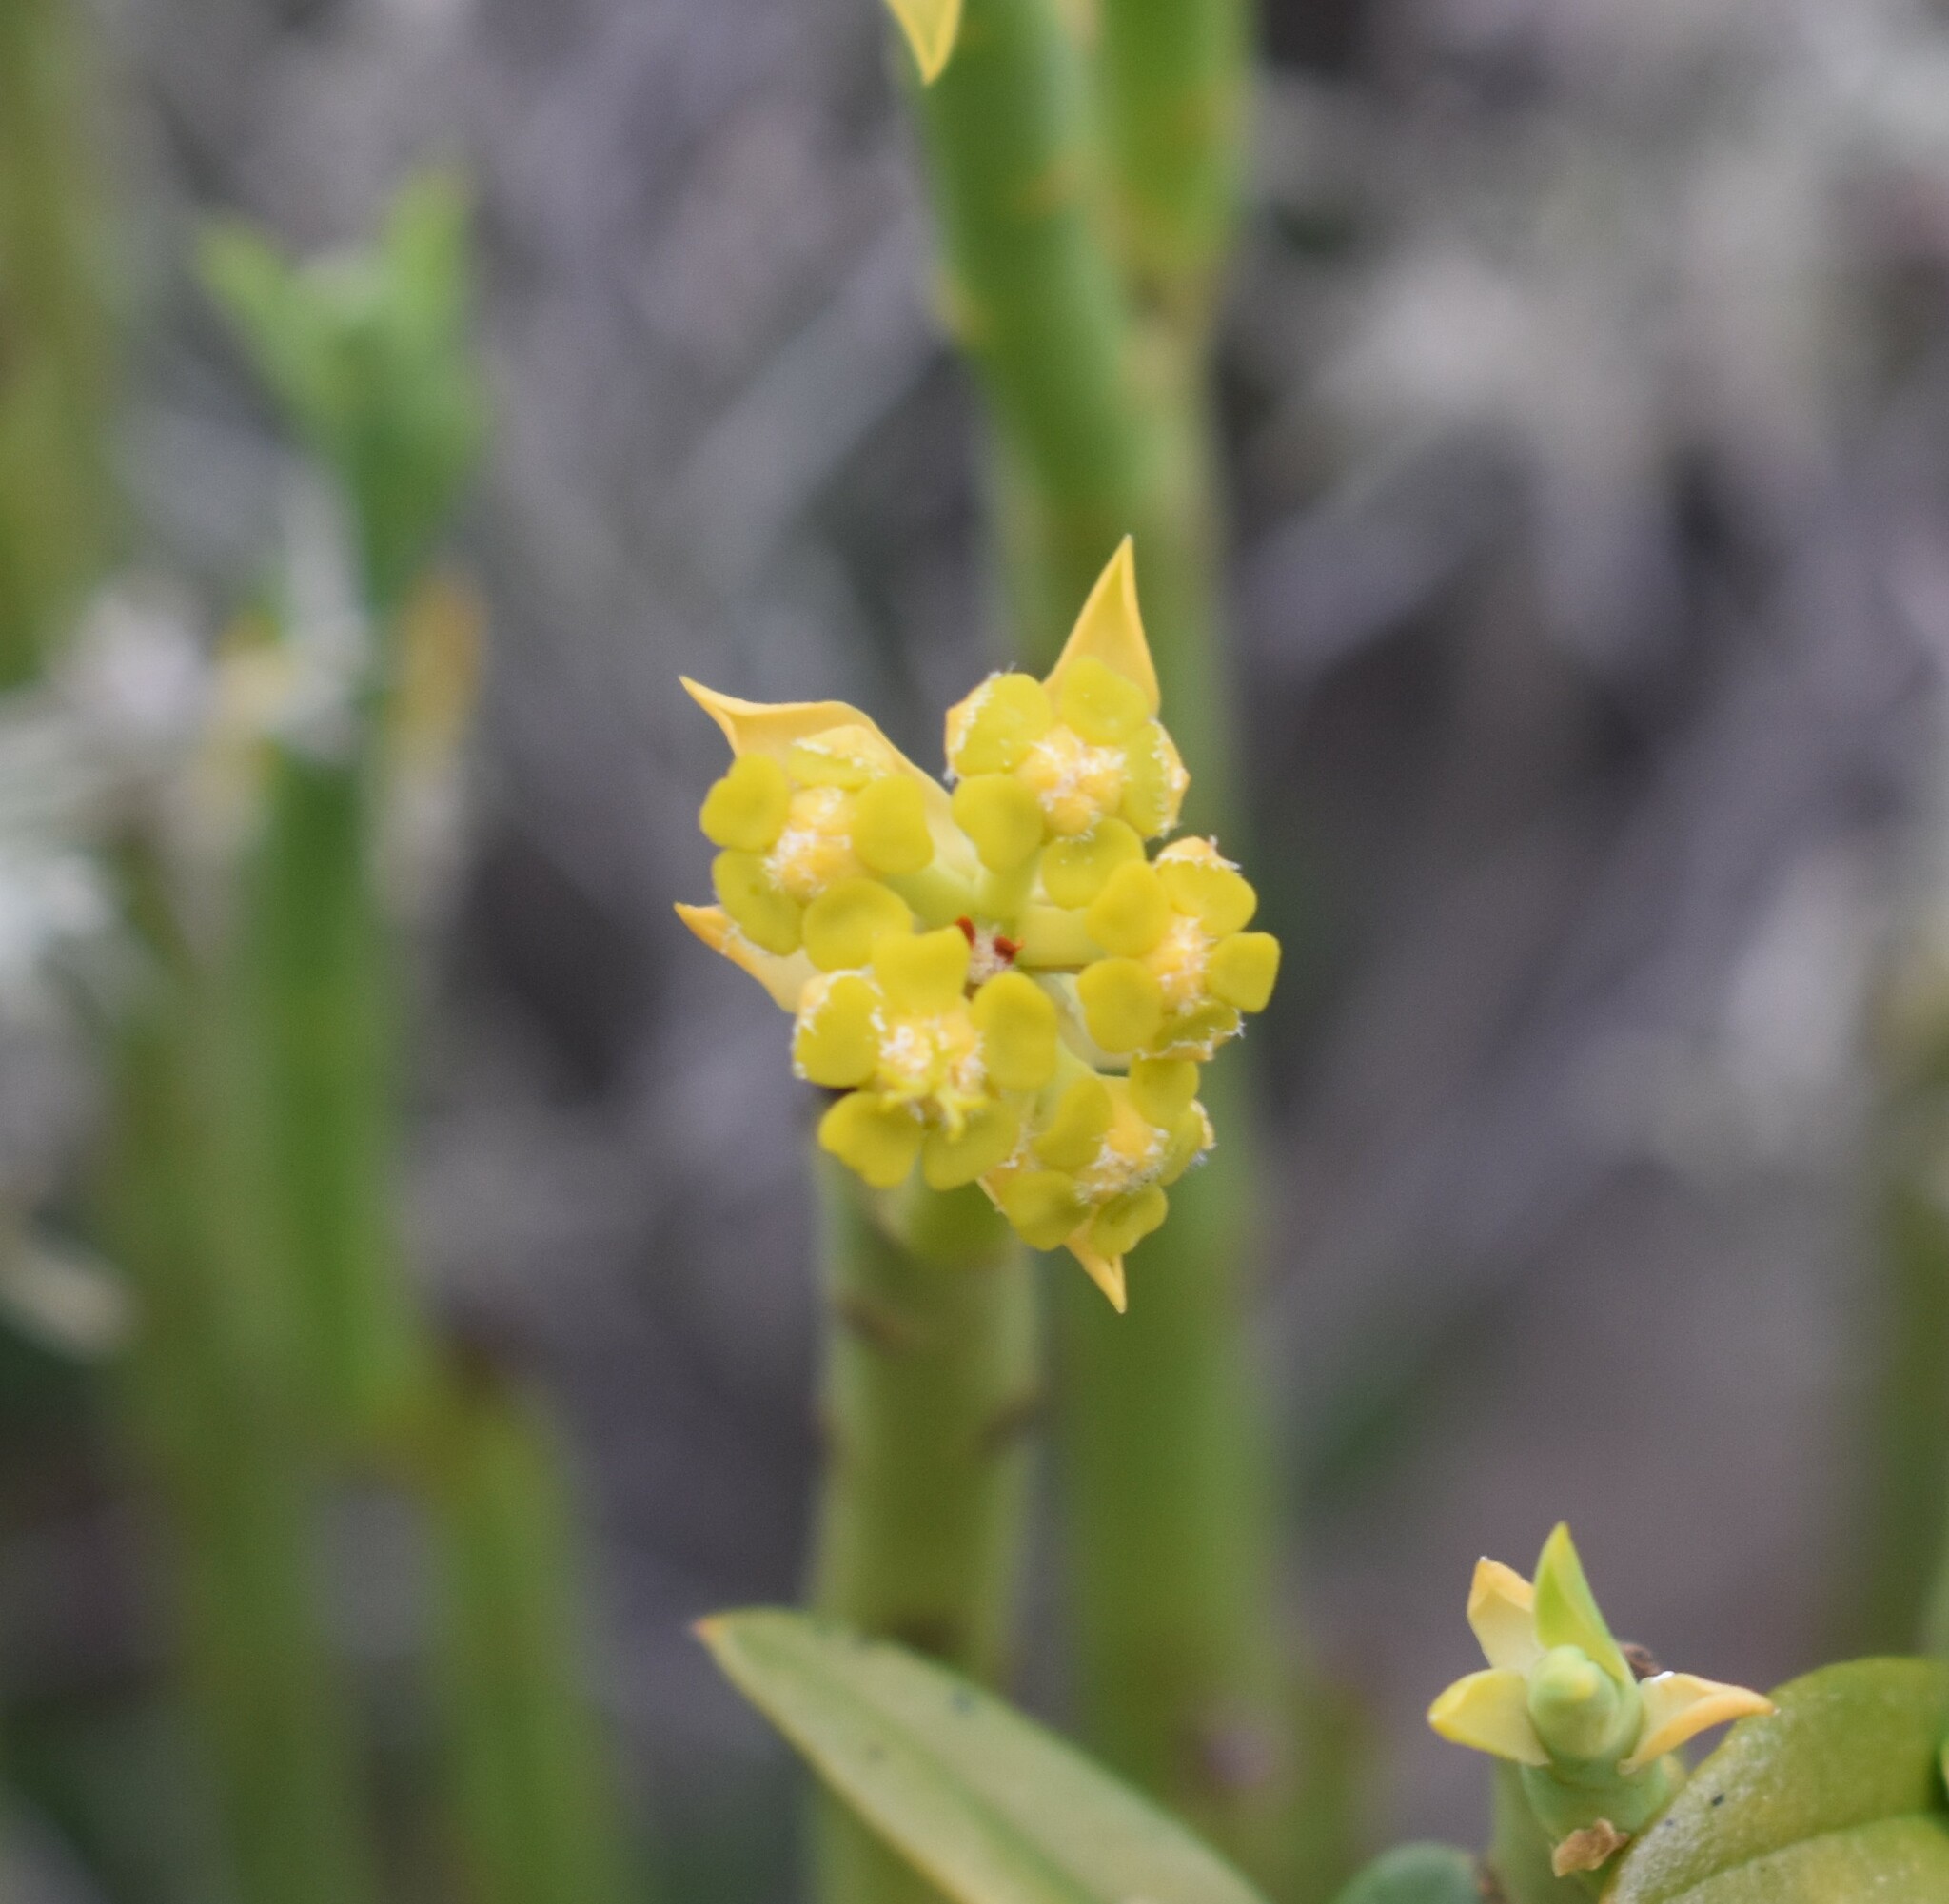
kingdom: Plantae
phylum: Tracheophyta
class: Magnoliopsida
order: Malpighiales
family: Euphorbiaceae
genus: Euphorbia
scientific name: Euphorbia mauritanica
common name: Jackal's-food
